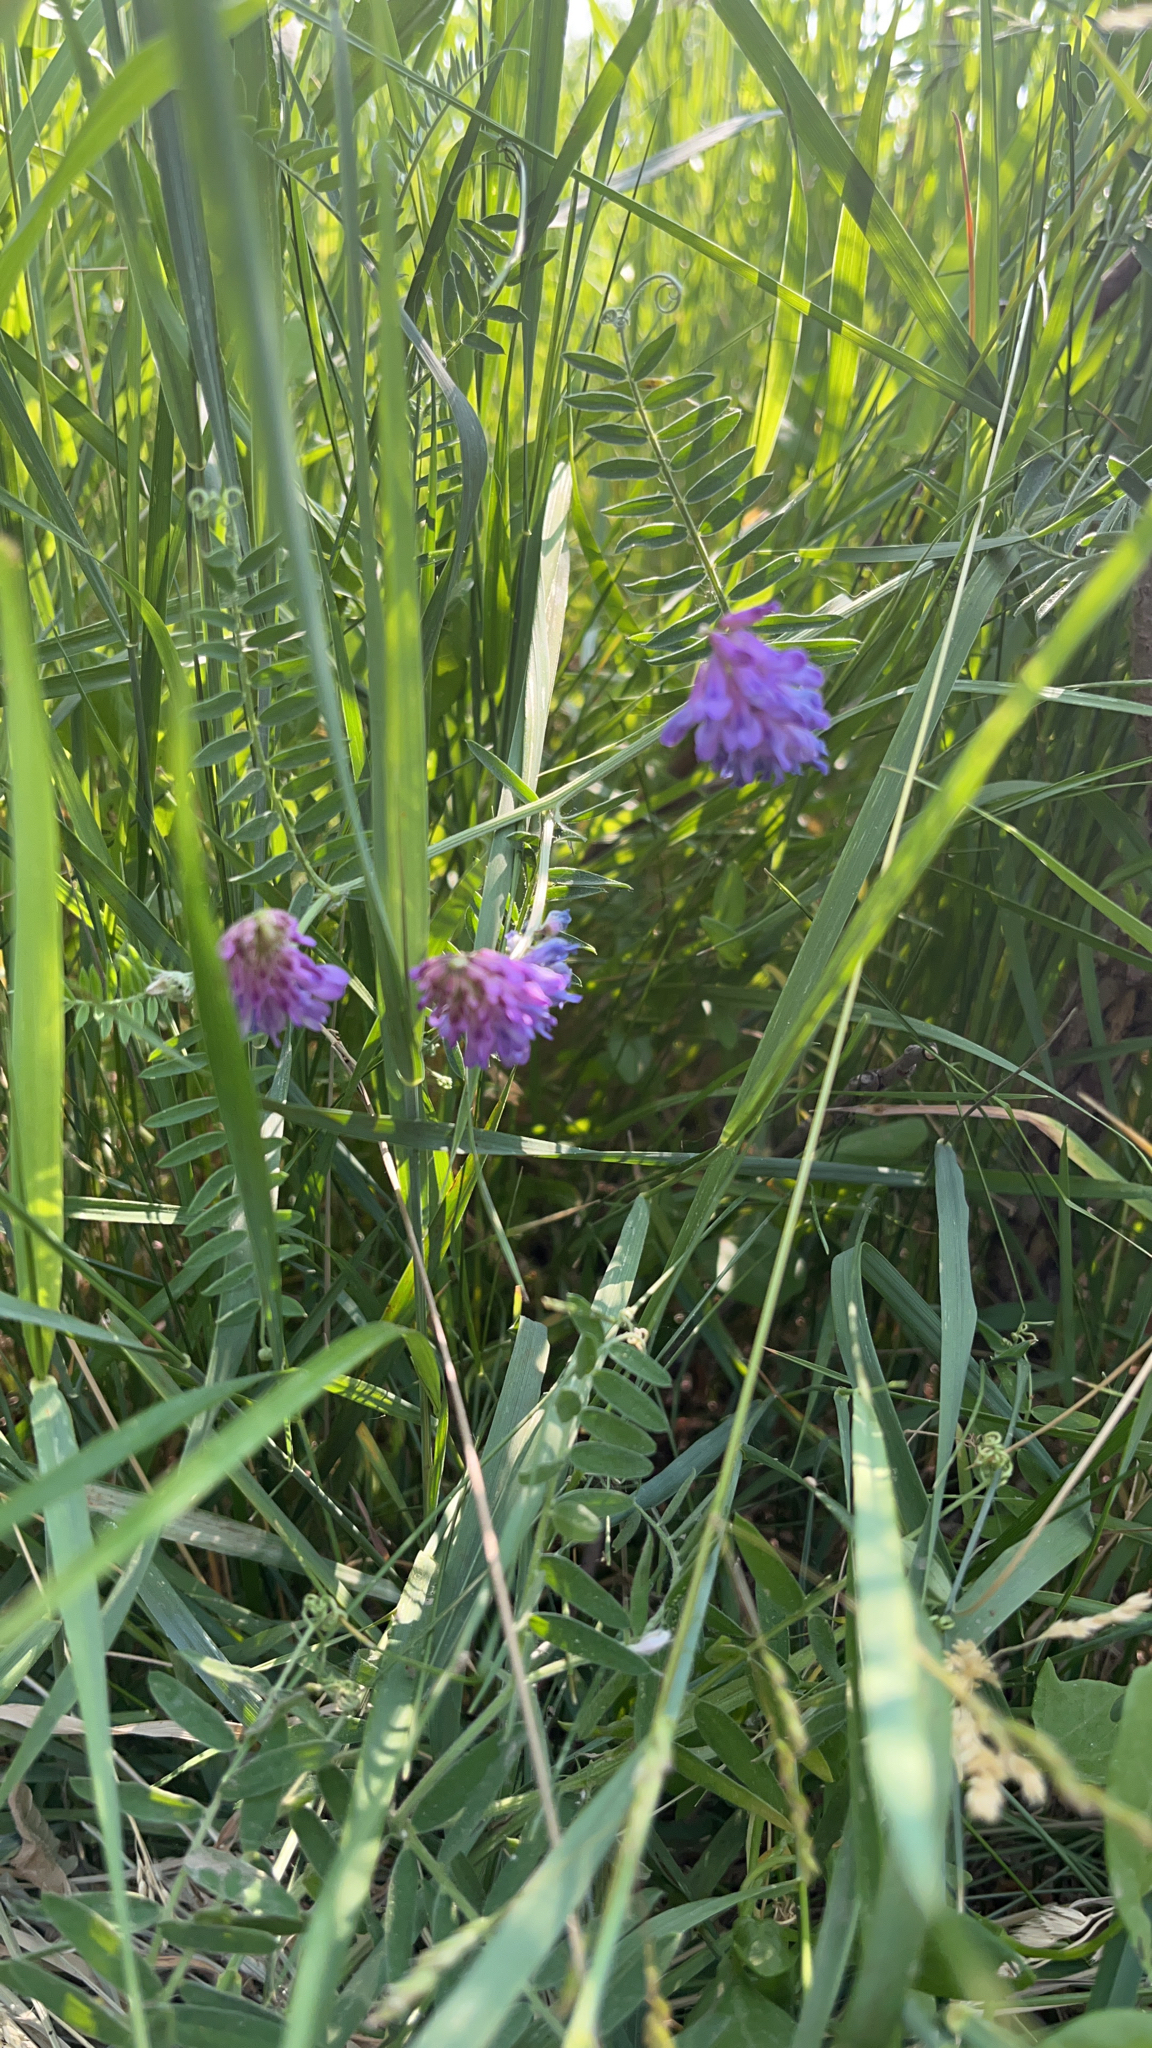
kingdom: Plantae
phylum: Tracheophyta
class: Magnoliopsida
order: Fabales
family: Fabaceae
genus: Vicia
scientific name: Vicia cracca
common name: Bird vetch
